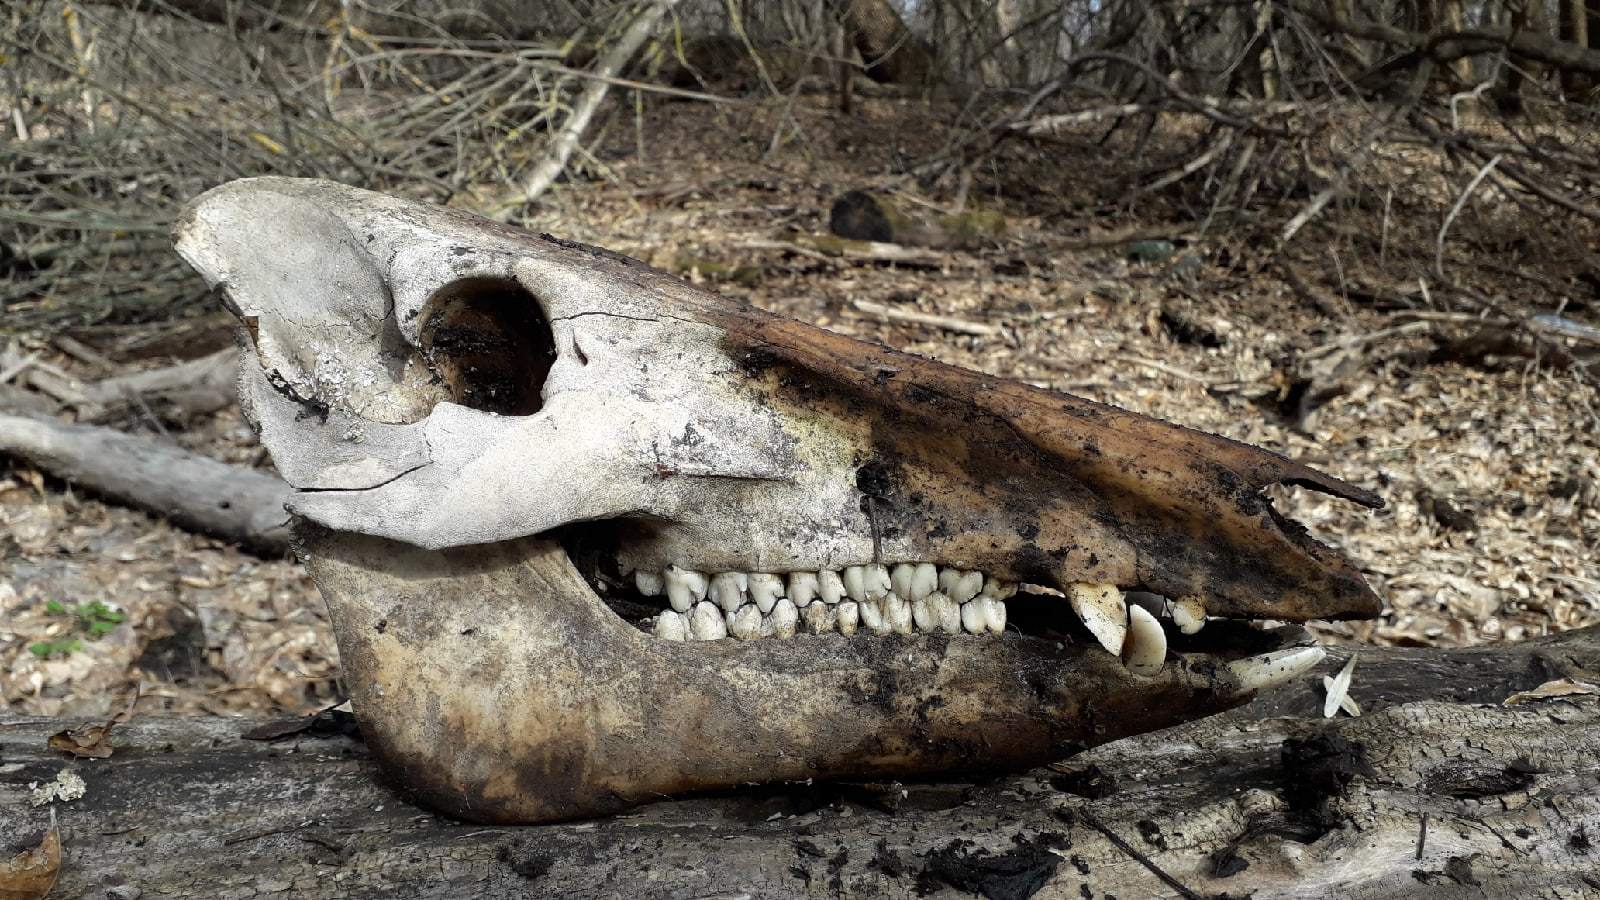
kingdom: Animalia
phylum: Chordata
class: Mammalia
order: Artiodactyla
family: Suidae
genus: Sus
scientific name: Sus scrofa
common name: Wild boar
